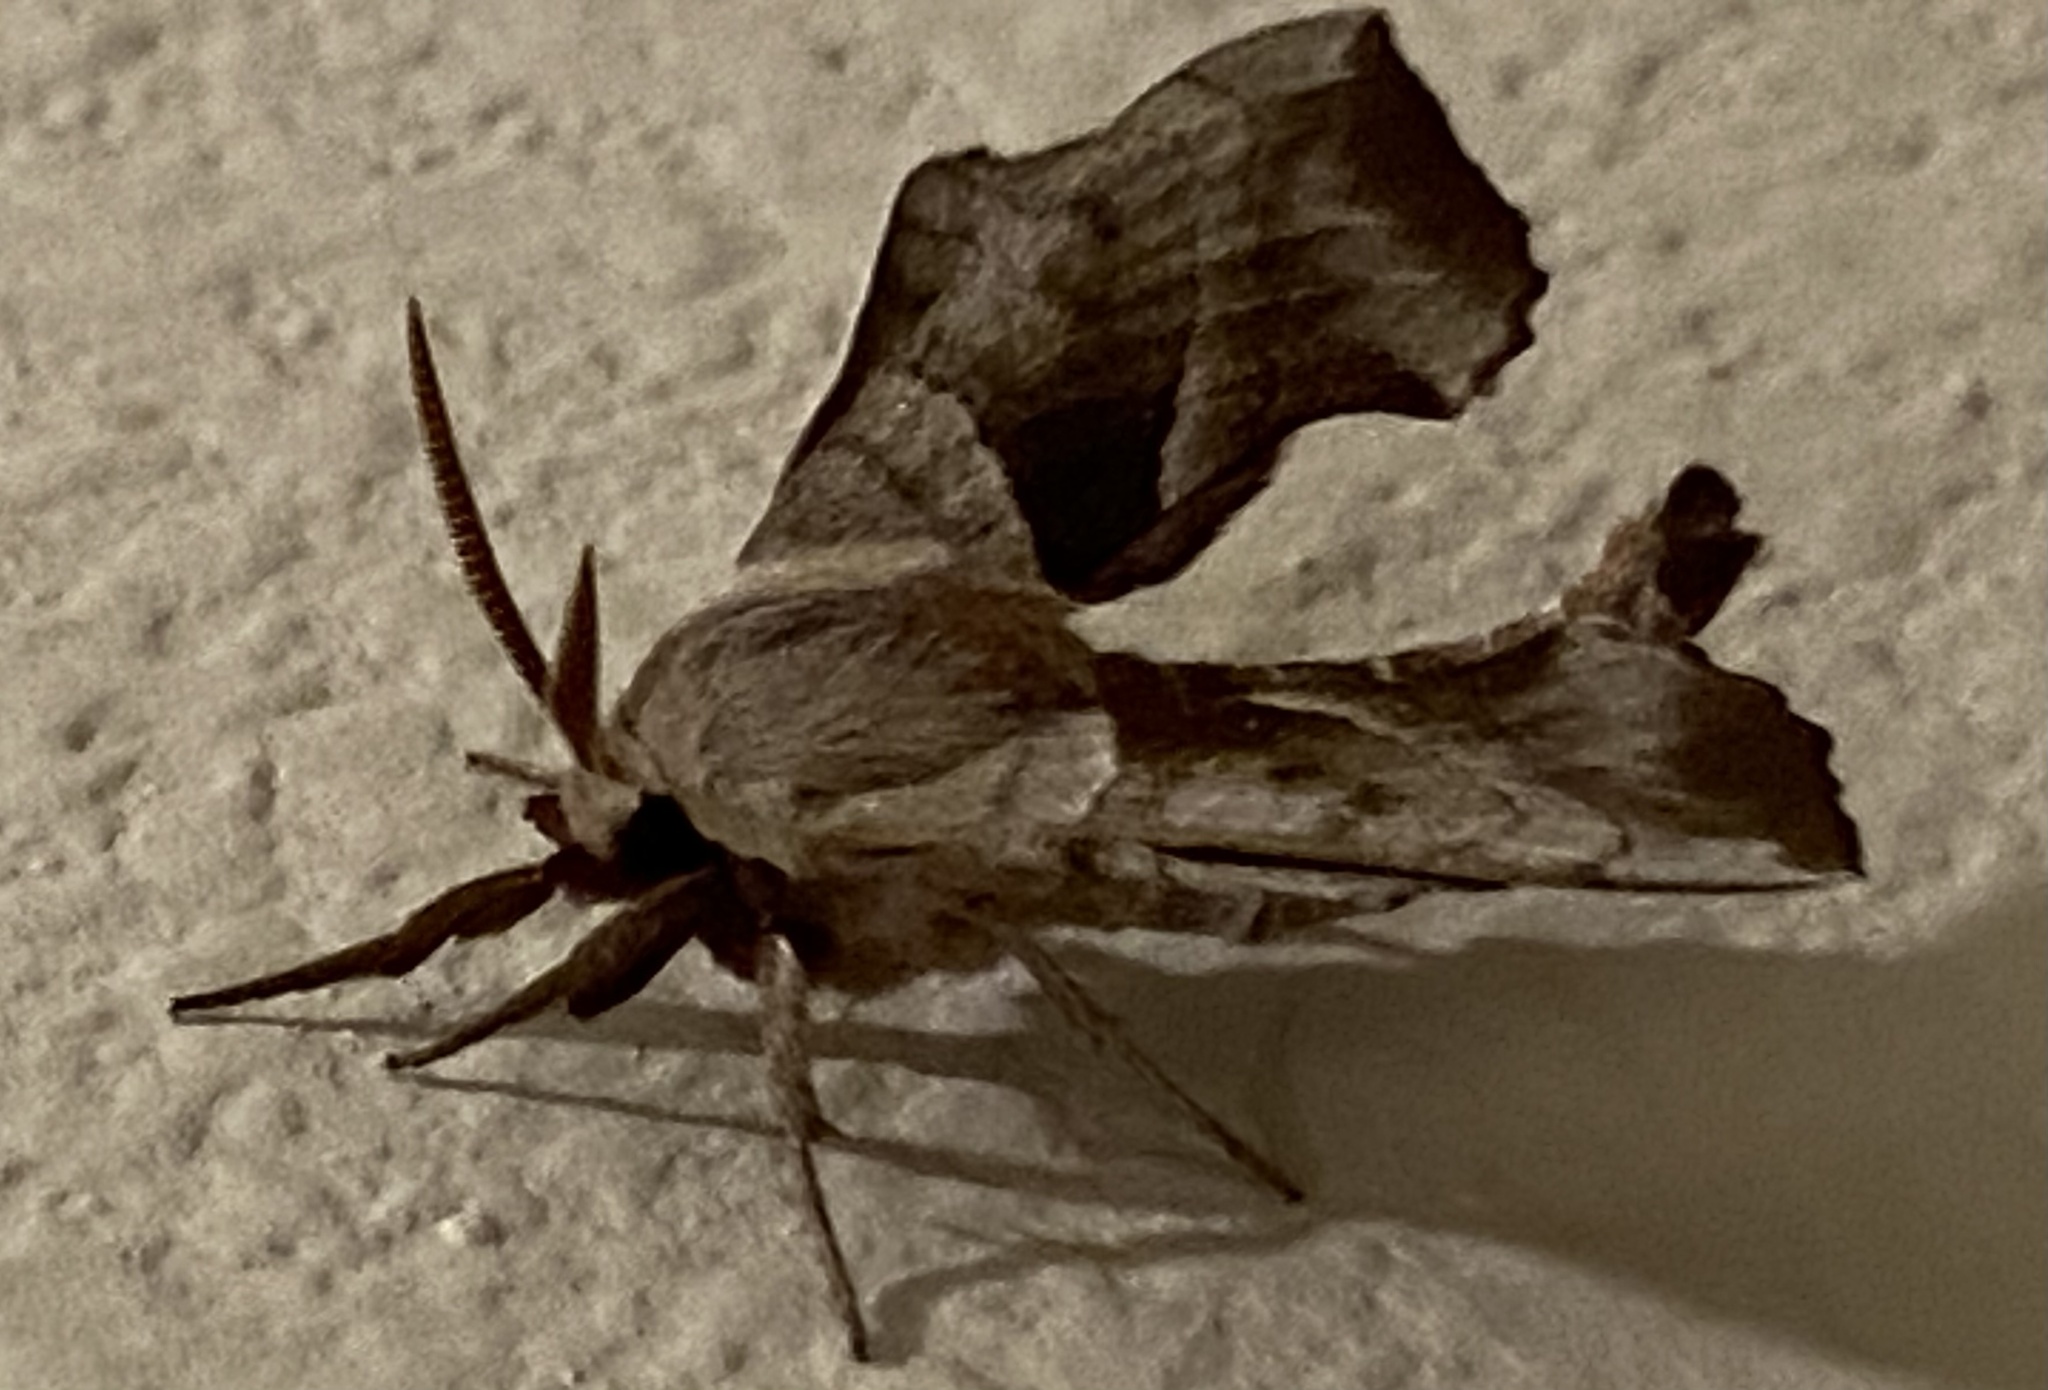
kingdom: Animalia
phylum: Arthropoda
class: Insecta
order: Lepidoptera
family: Sphingidae
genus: Amorpha
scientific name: Amorpha juglandis
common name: Walnut sphinx
